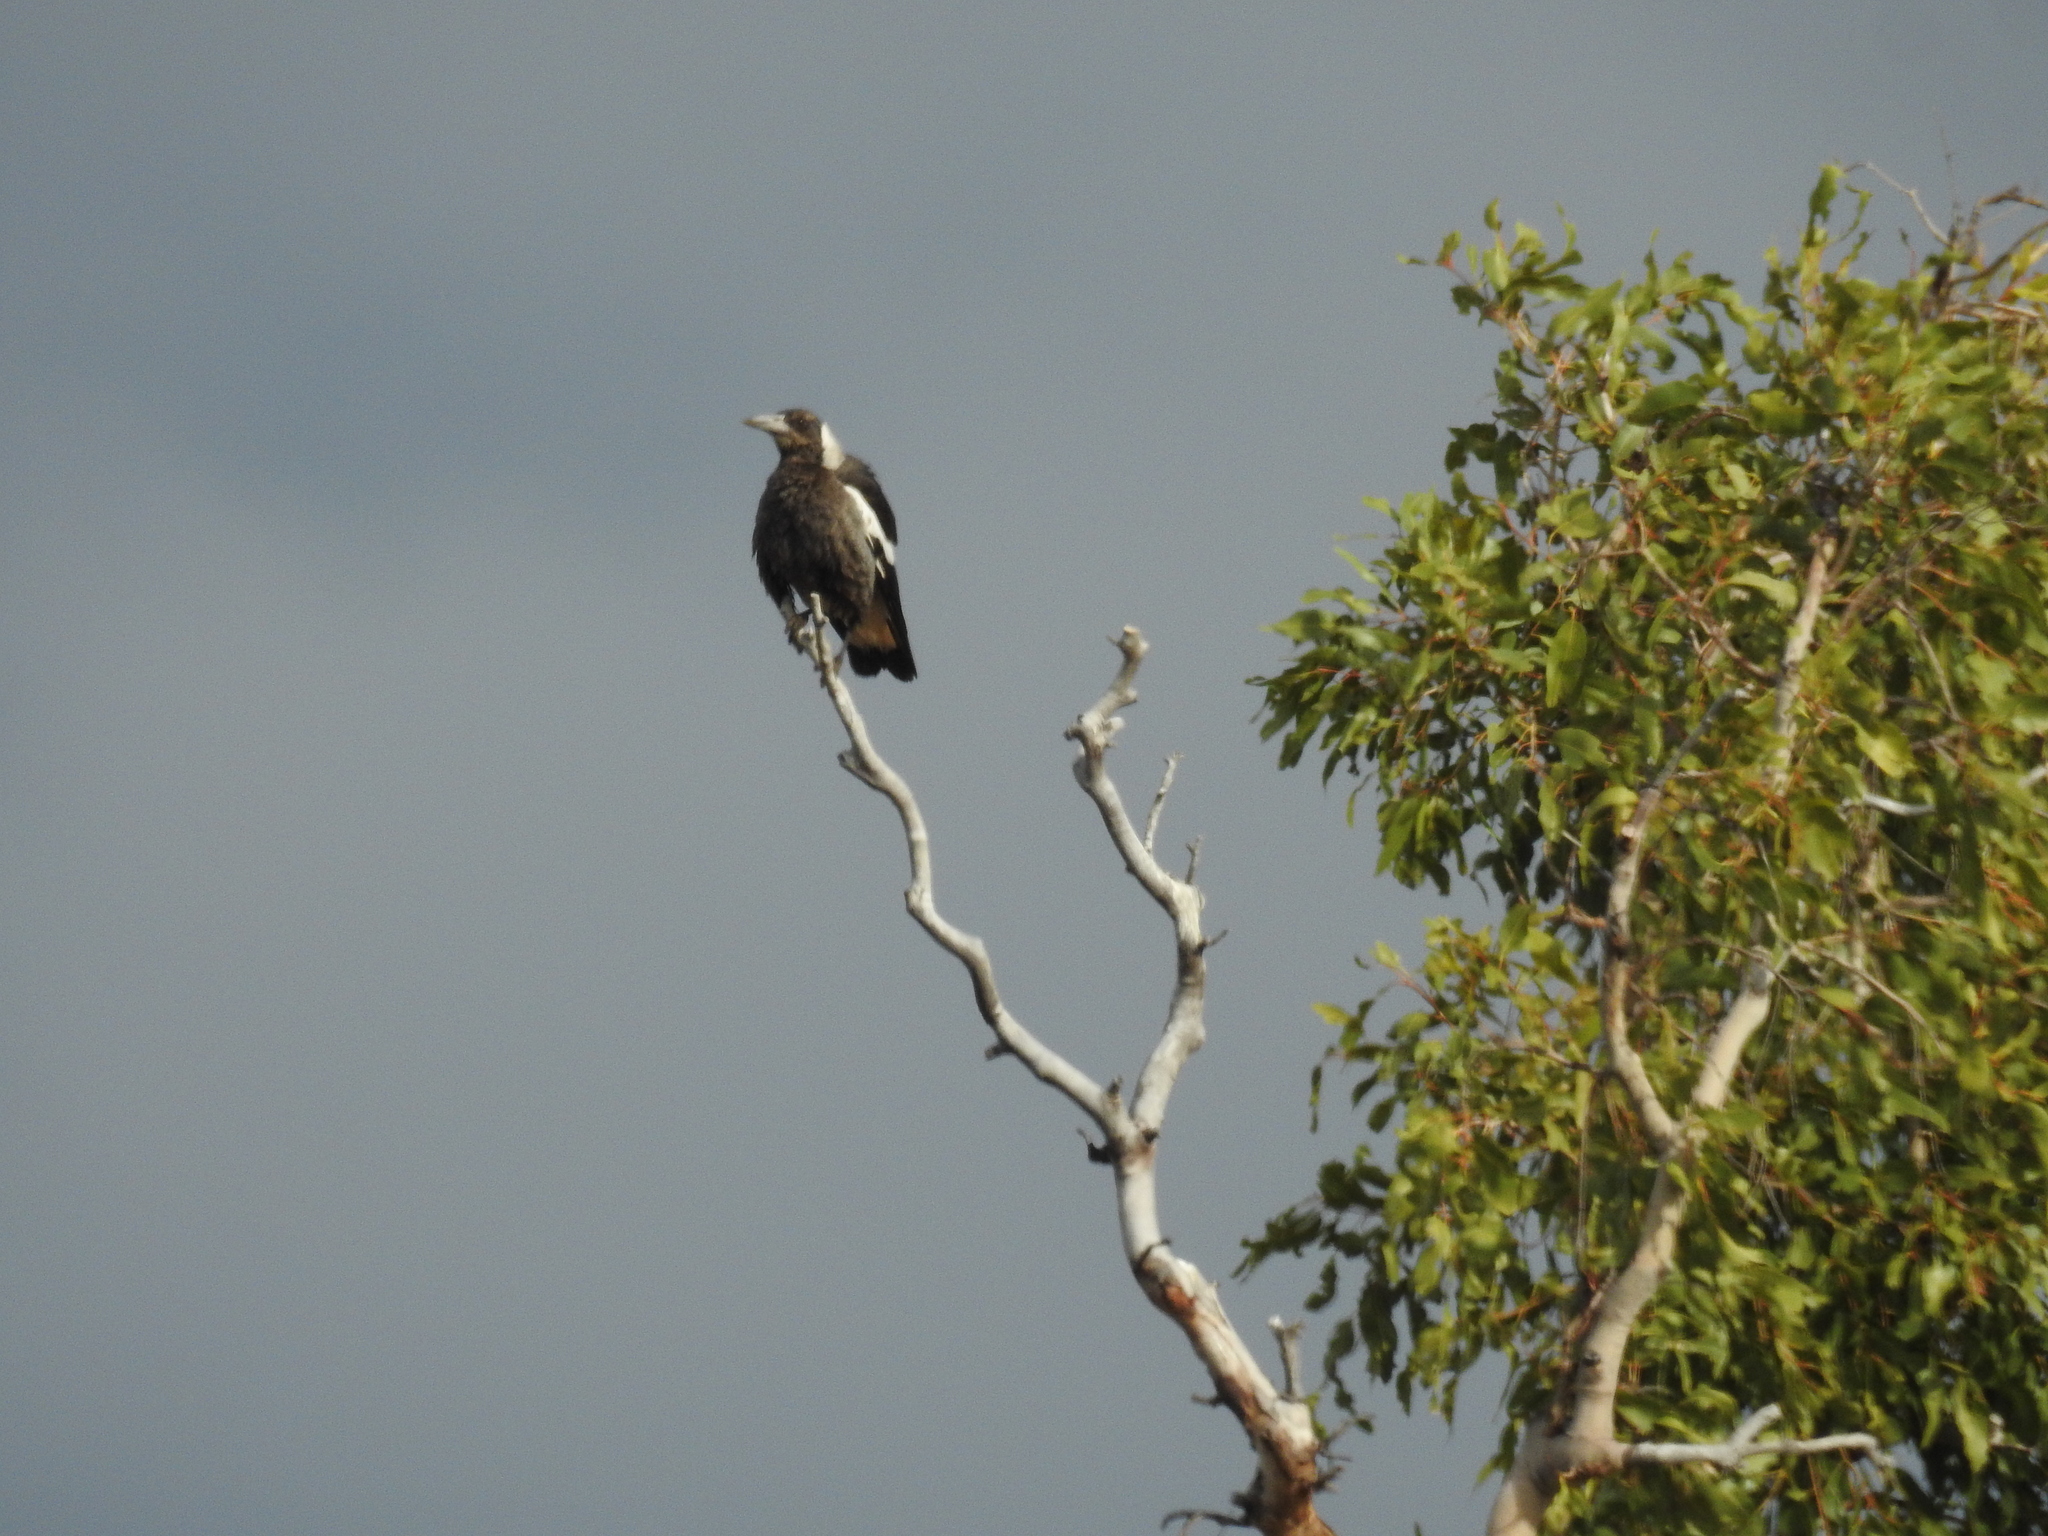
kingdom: Animalia
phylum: Chordata
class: Aves
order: Passeriformes
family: Cracticidae
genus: Gymnorhina
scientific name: Gymnorhina tibicen
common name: Australian magpie
